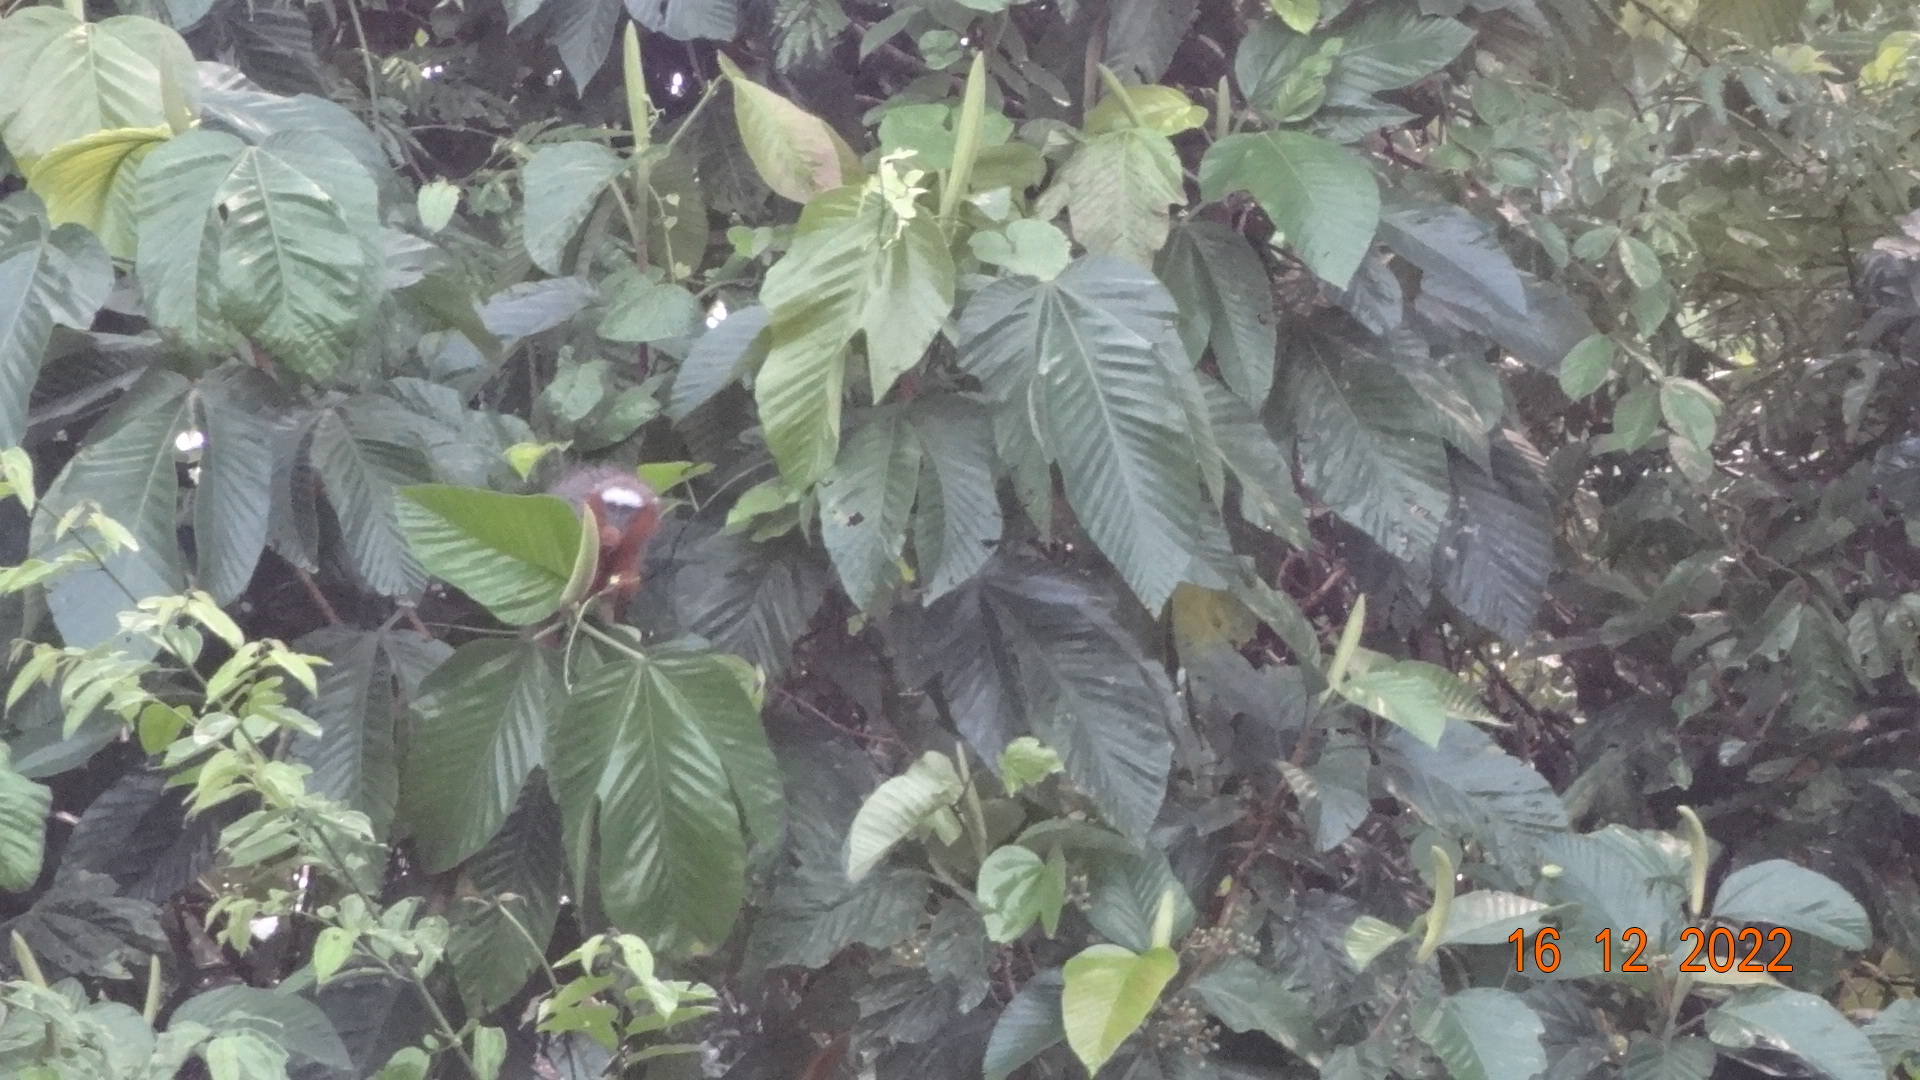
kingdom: Animalia
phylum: Chordata
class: Mammalia
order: Primates
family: Pitheciidae
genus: Plecturocebus
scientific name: Plecturocebus discolor
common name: Red-crowned titi
